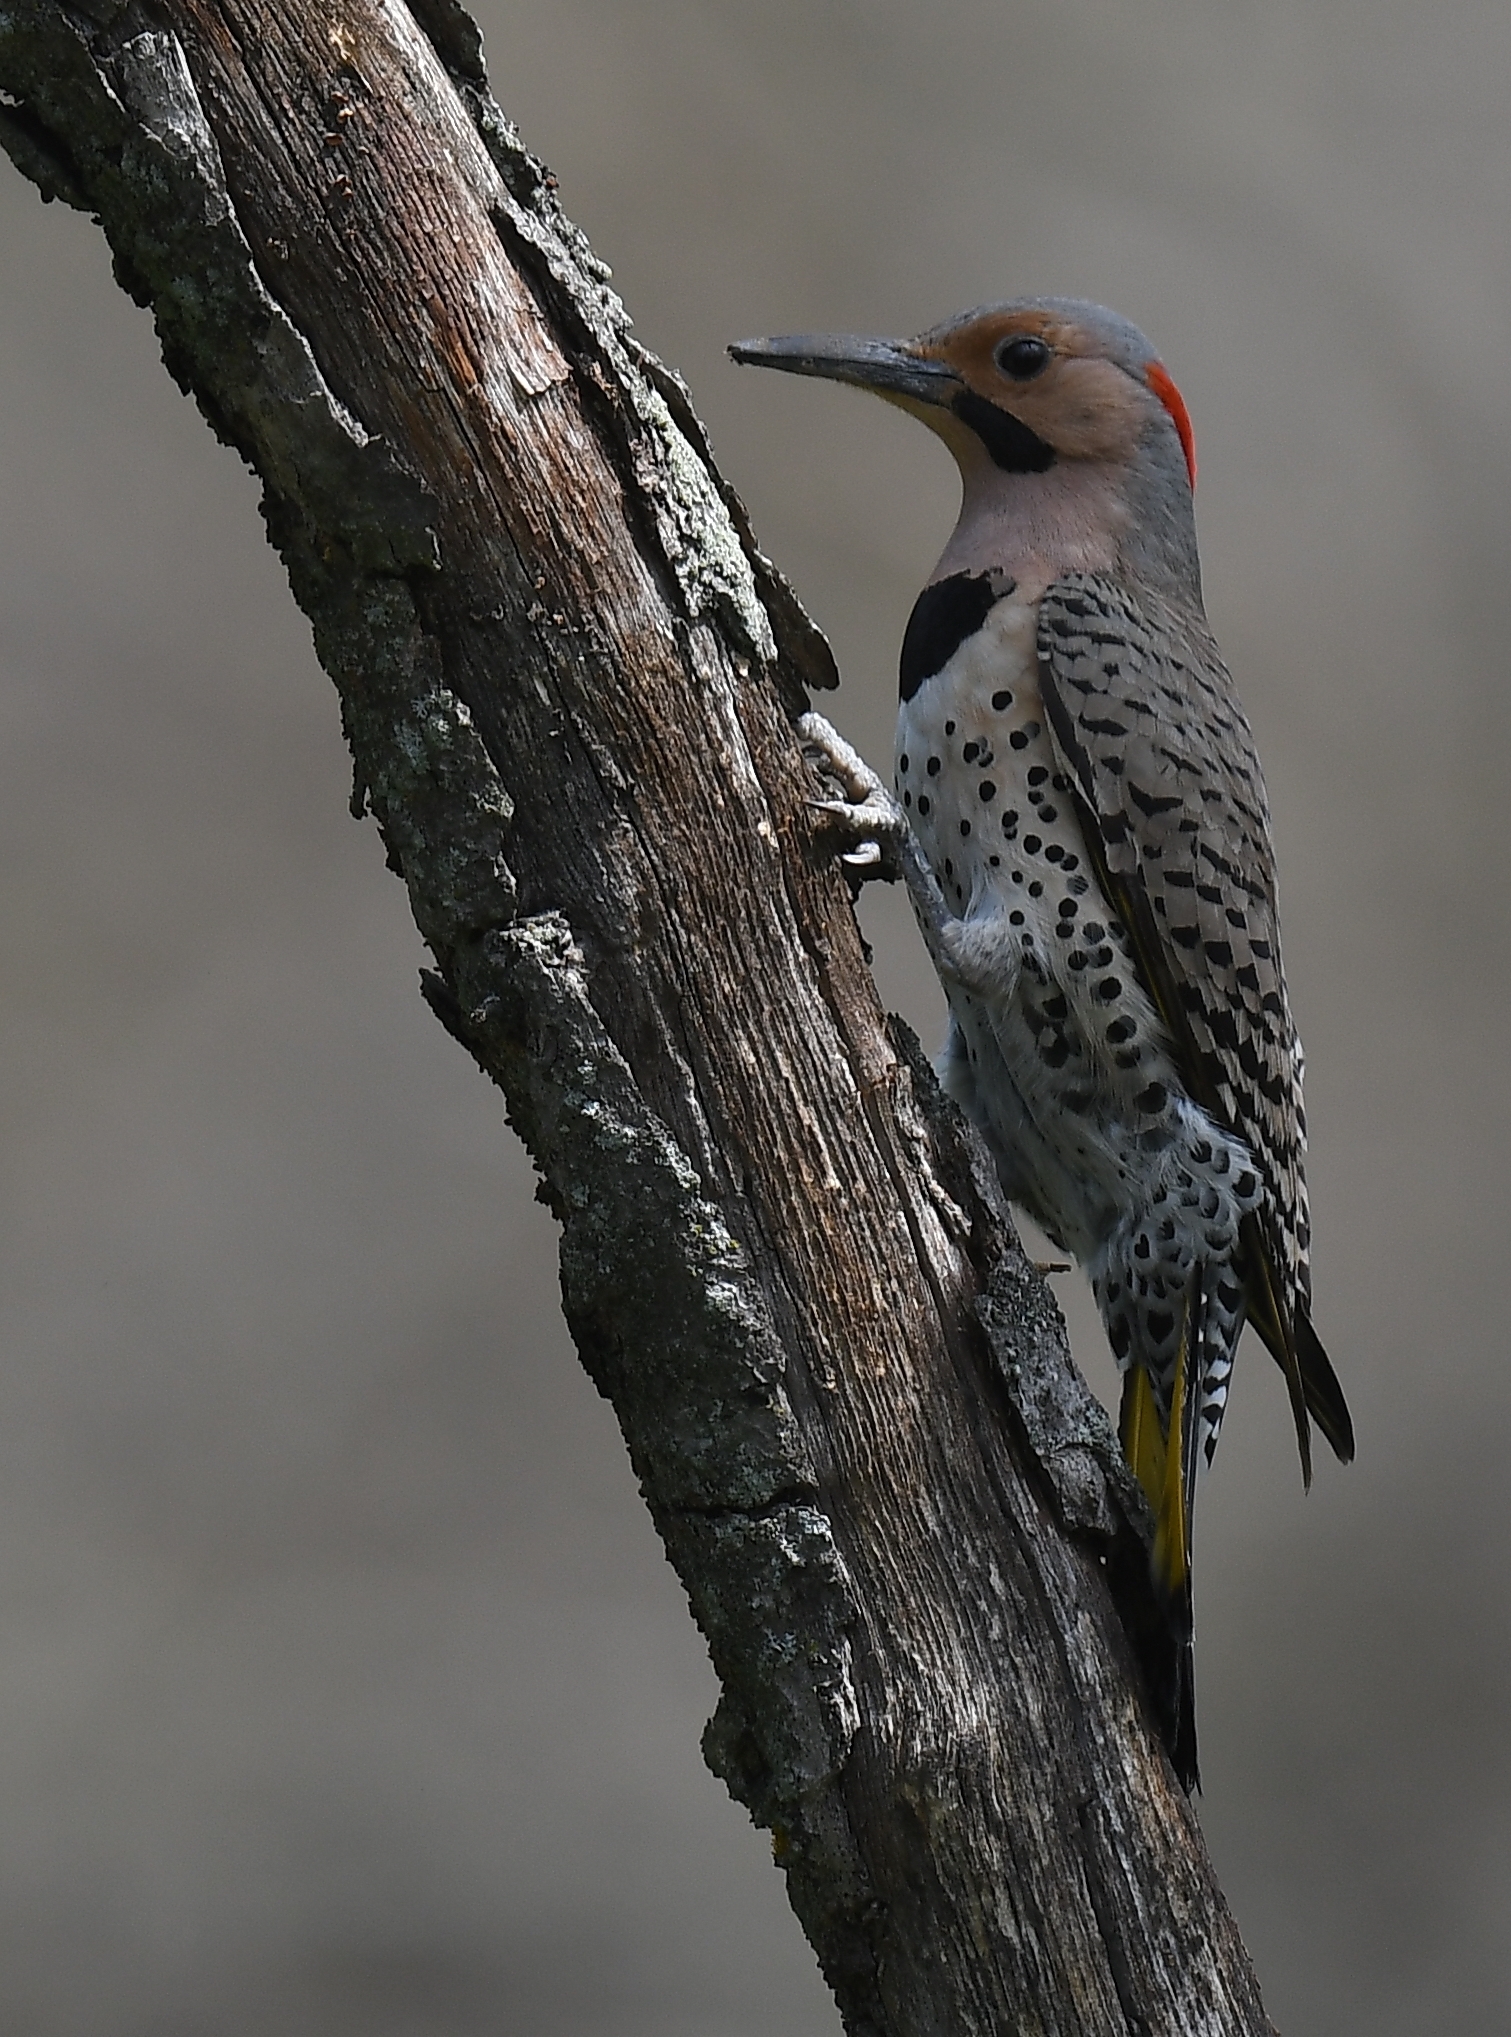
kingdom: Animalia
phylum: Chordata
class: Aves
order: Piciformes
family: Picidae
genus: Colaptes
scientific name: Colaptes auratus
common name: Northern flicker
